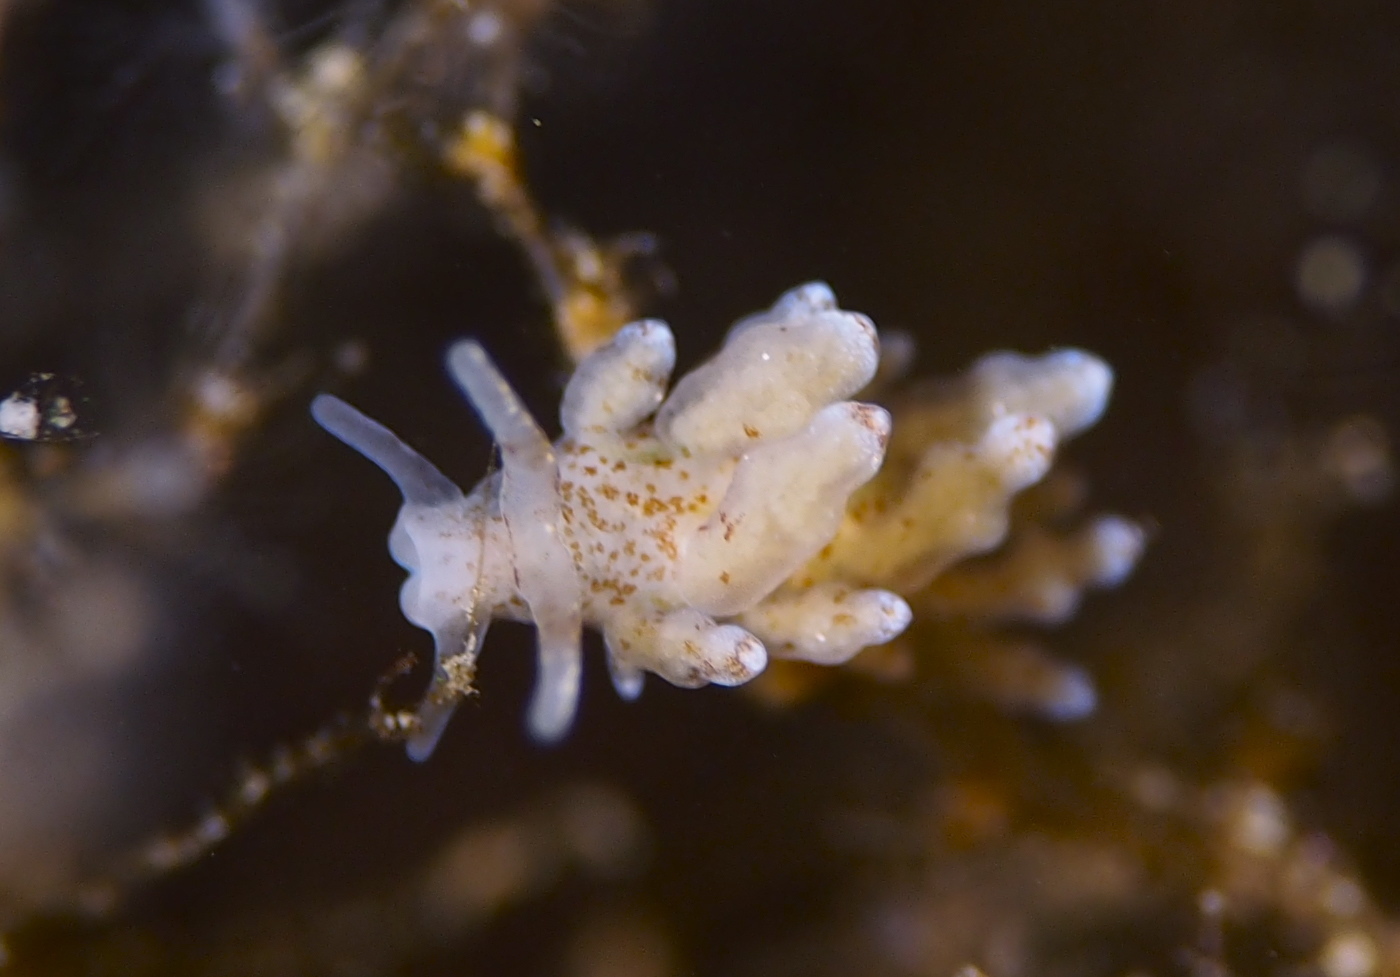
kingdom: Animalia
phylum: Mollusca
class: Gastropoda
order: Nudibranchia
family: Eubranchidae
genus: Eubranchus
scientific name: Eubranchus exiguus
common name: Balloon aeolis
